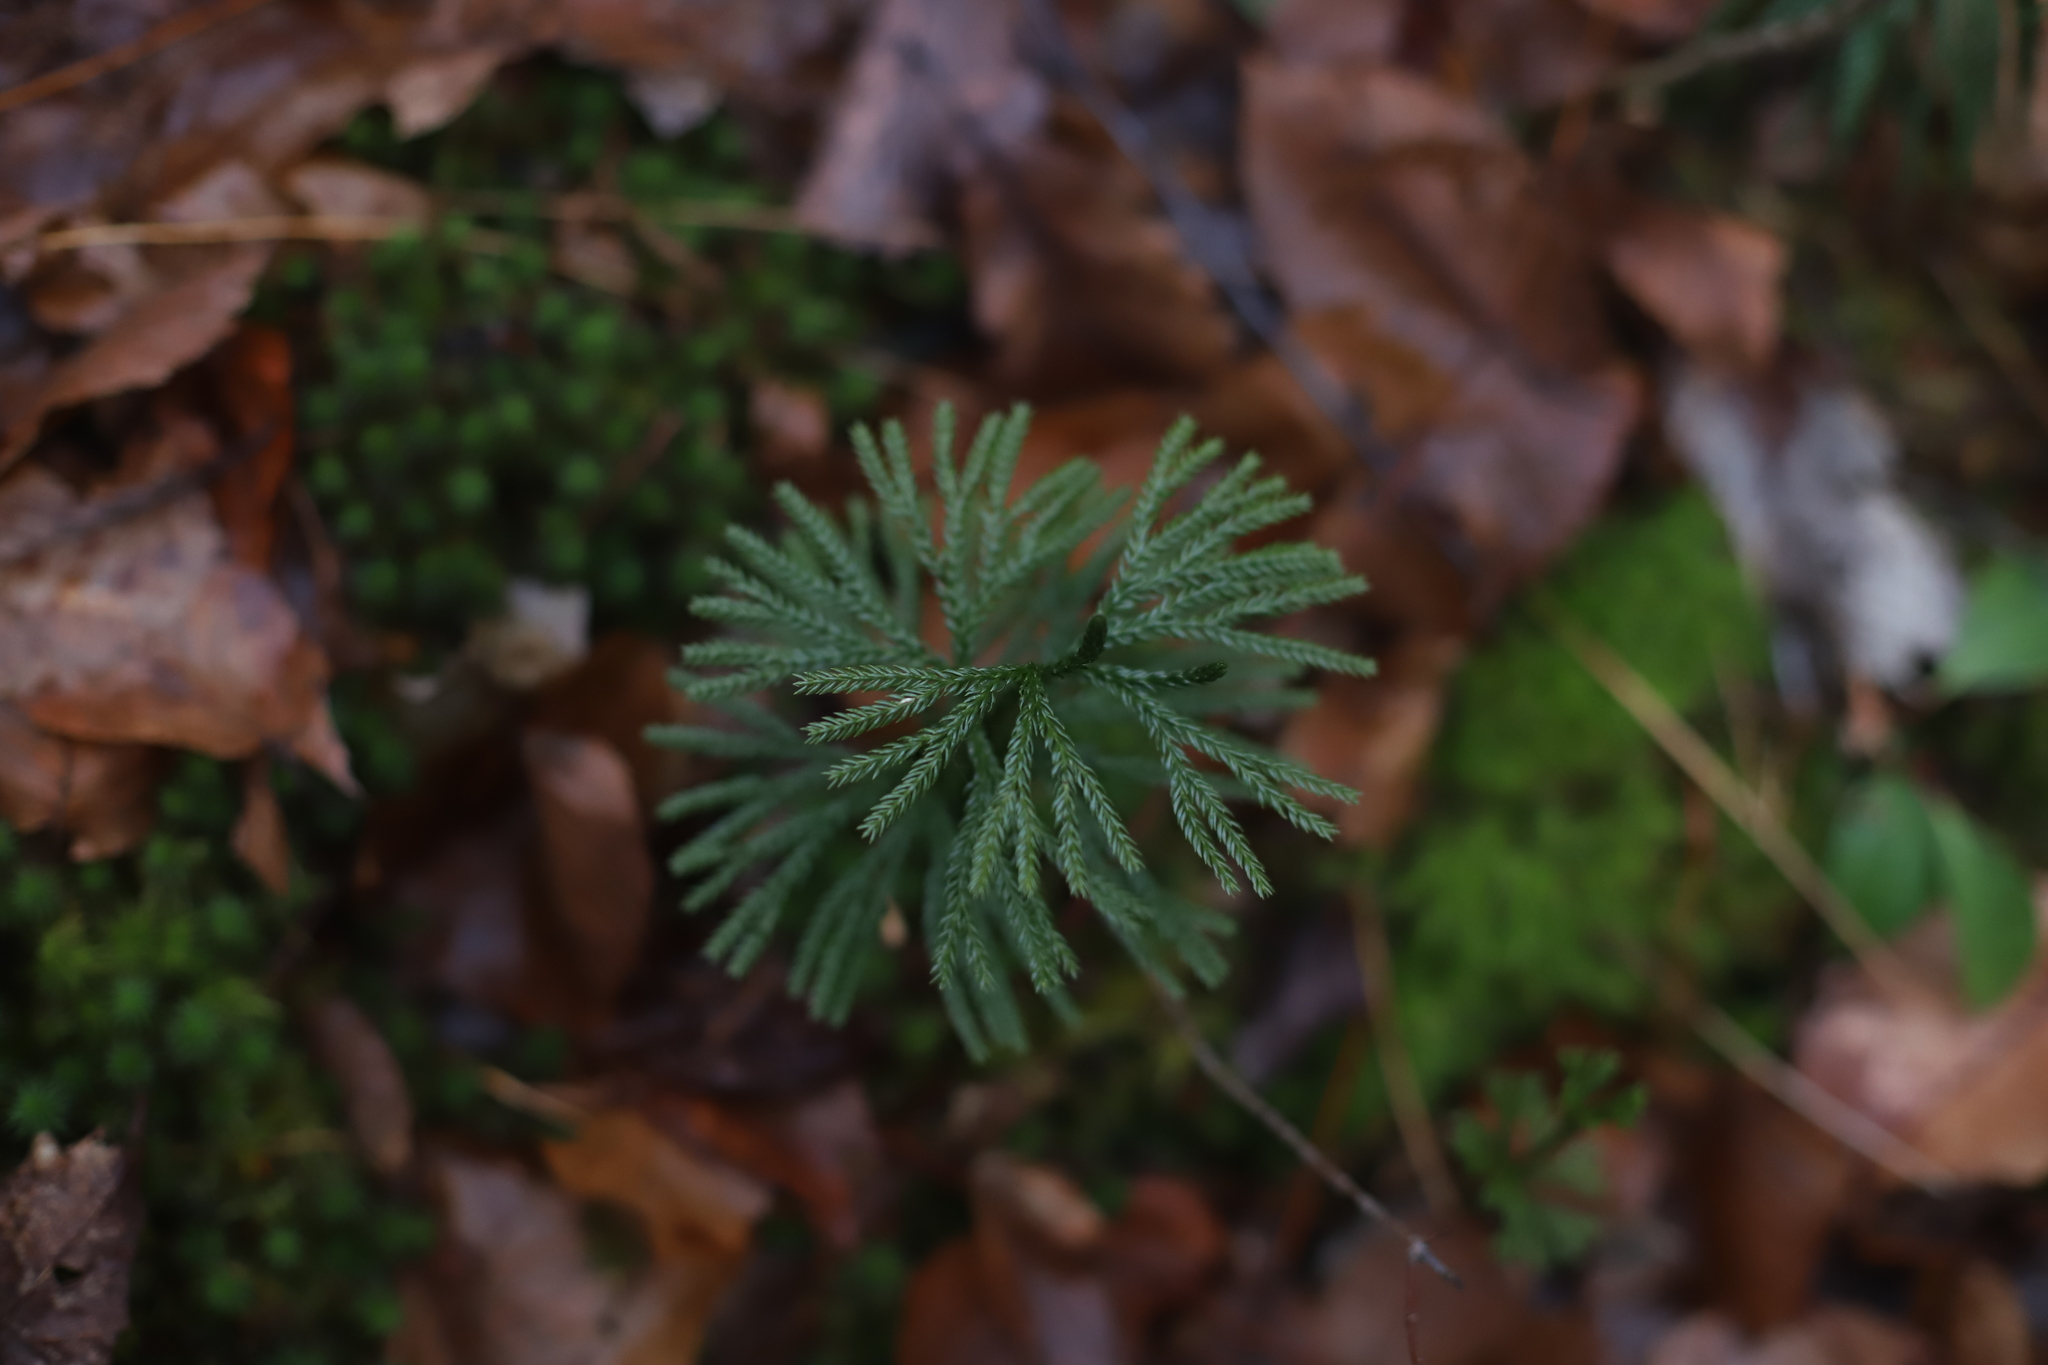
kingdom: Plantae
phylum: Tracheophyta
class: Lycopodiopsida
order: Lycopodiales
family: Lycopodiaceae
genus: Dendrolycopodium
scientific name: Dendrolycopodium obscurum
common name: Common ground-pine
